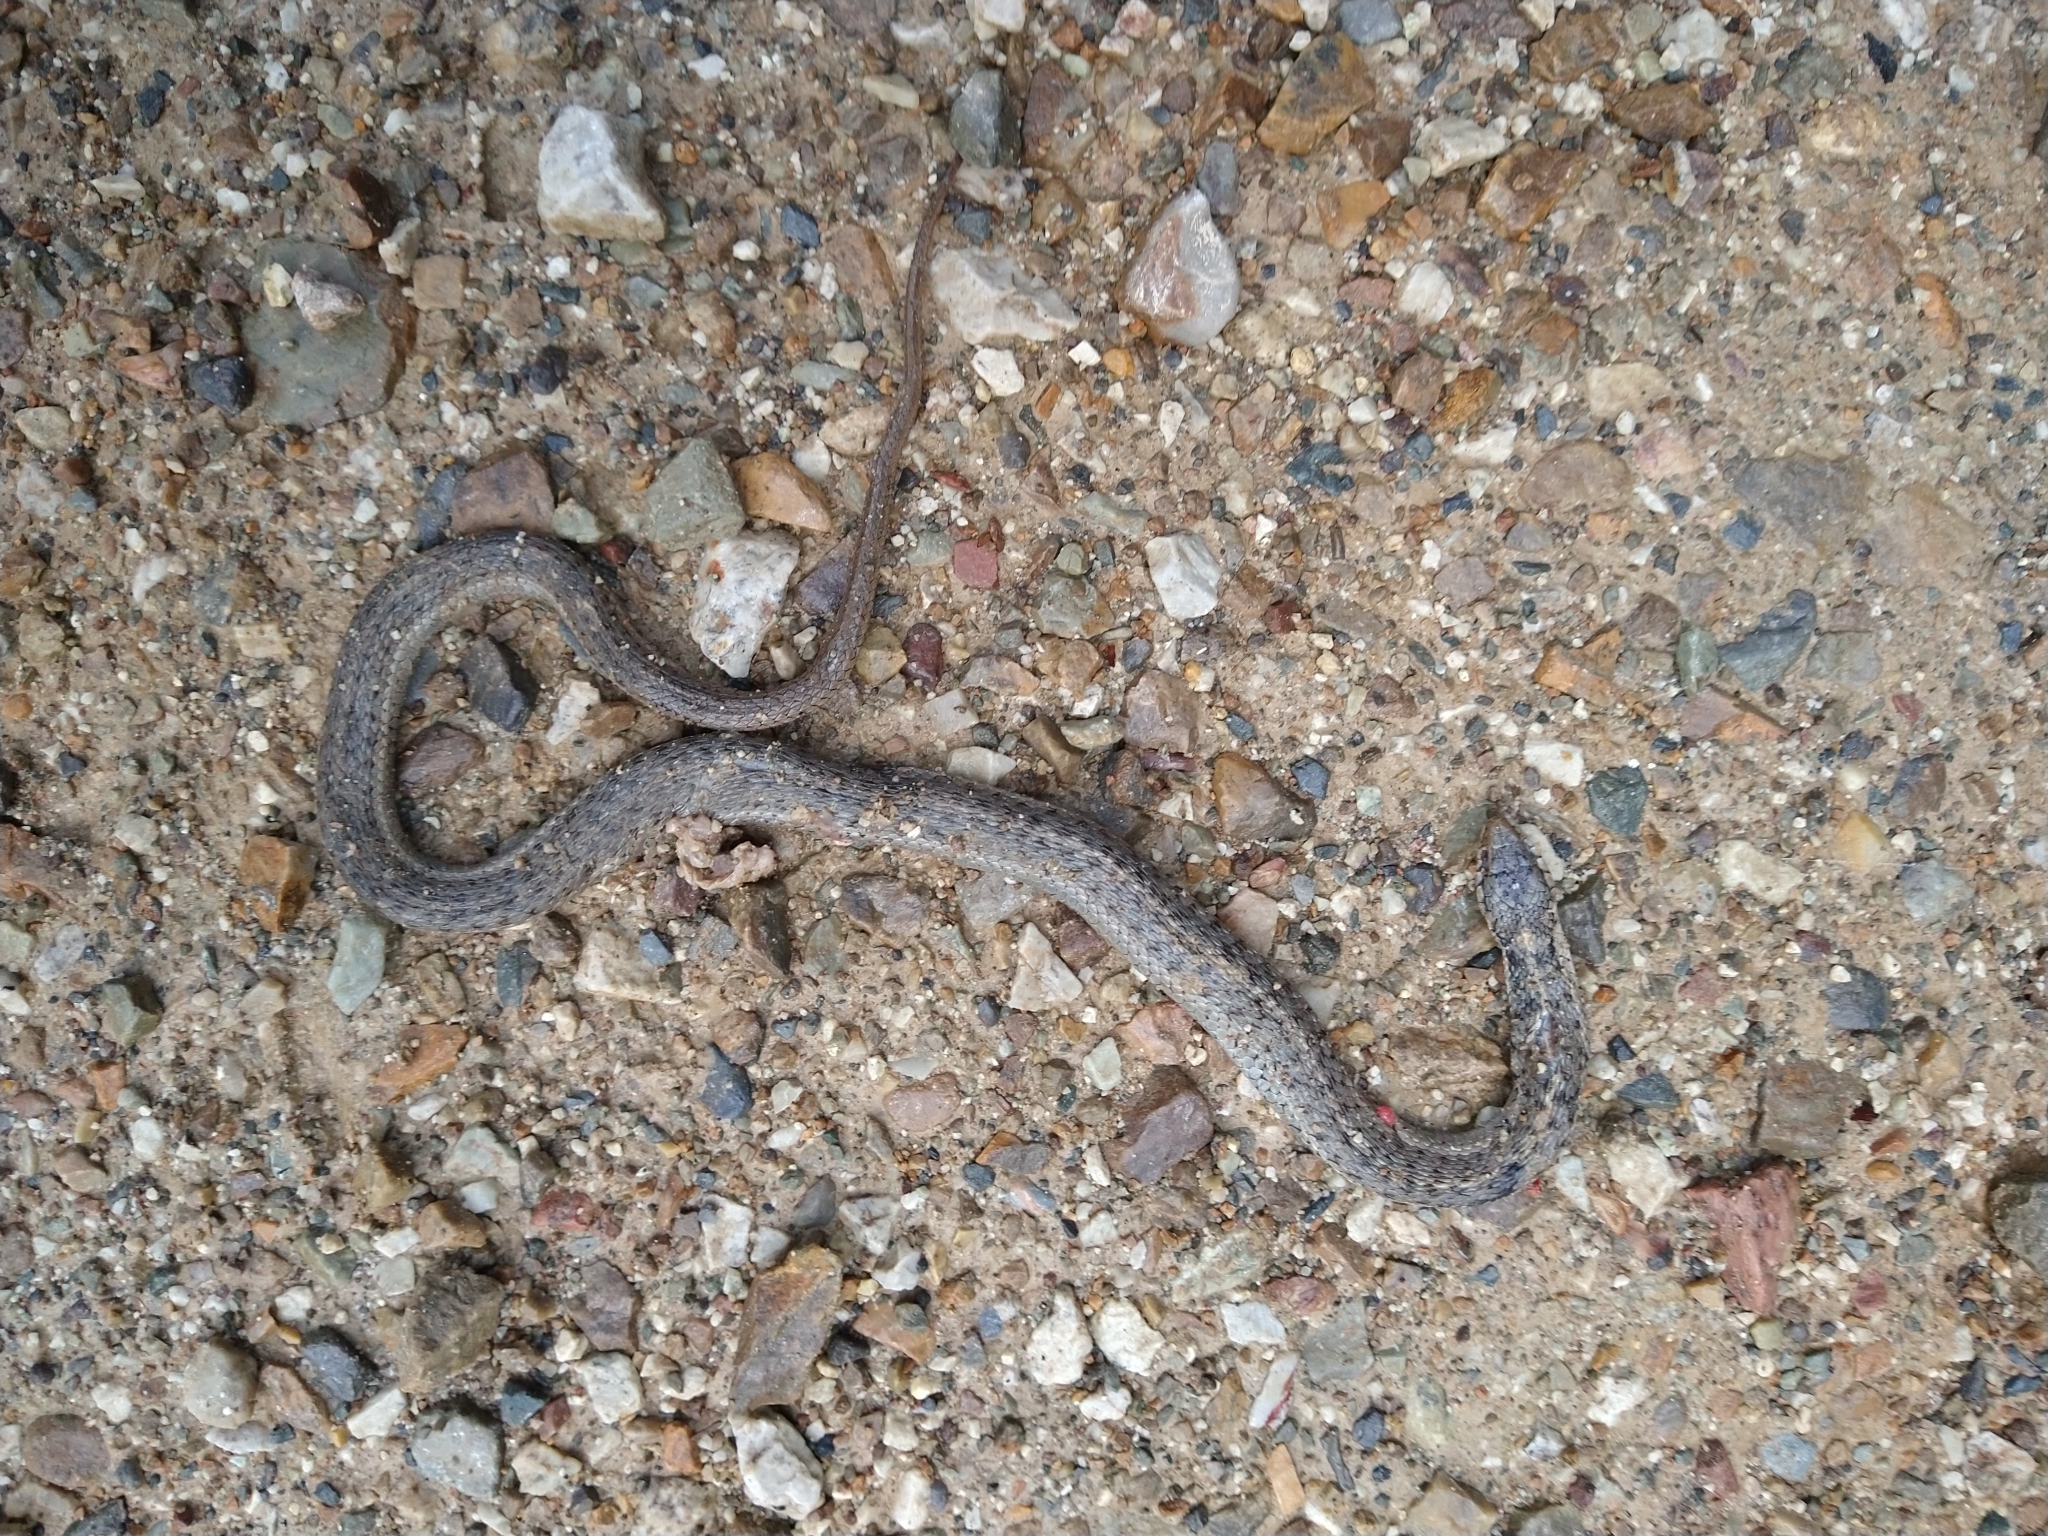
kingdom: Animalia
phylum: Chordata
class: Squamata
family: Colubridae
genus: Thamnophis
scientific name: Thamnophis elegans
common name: Western terrestrial garter snake
